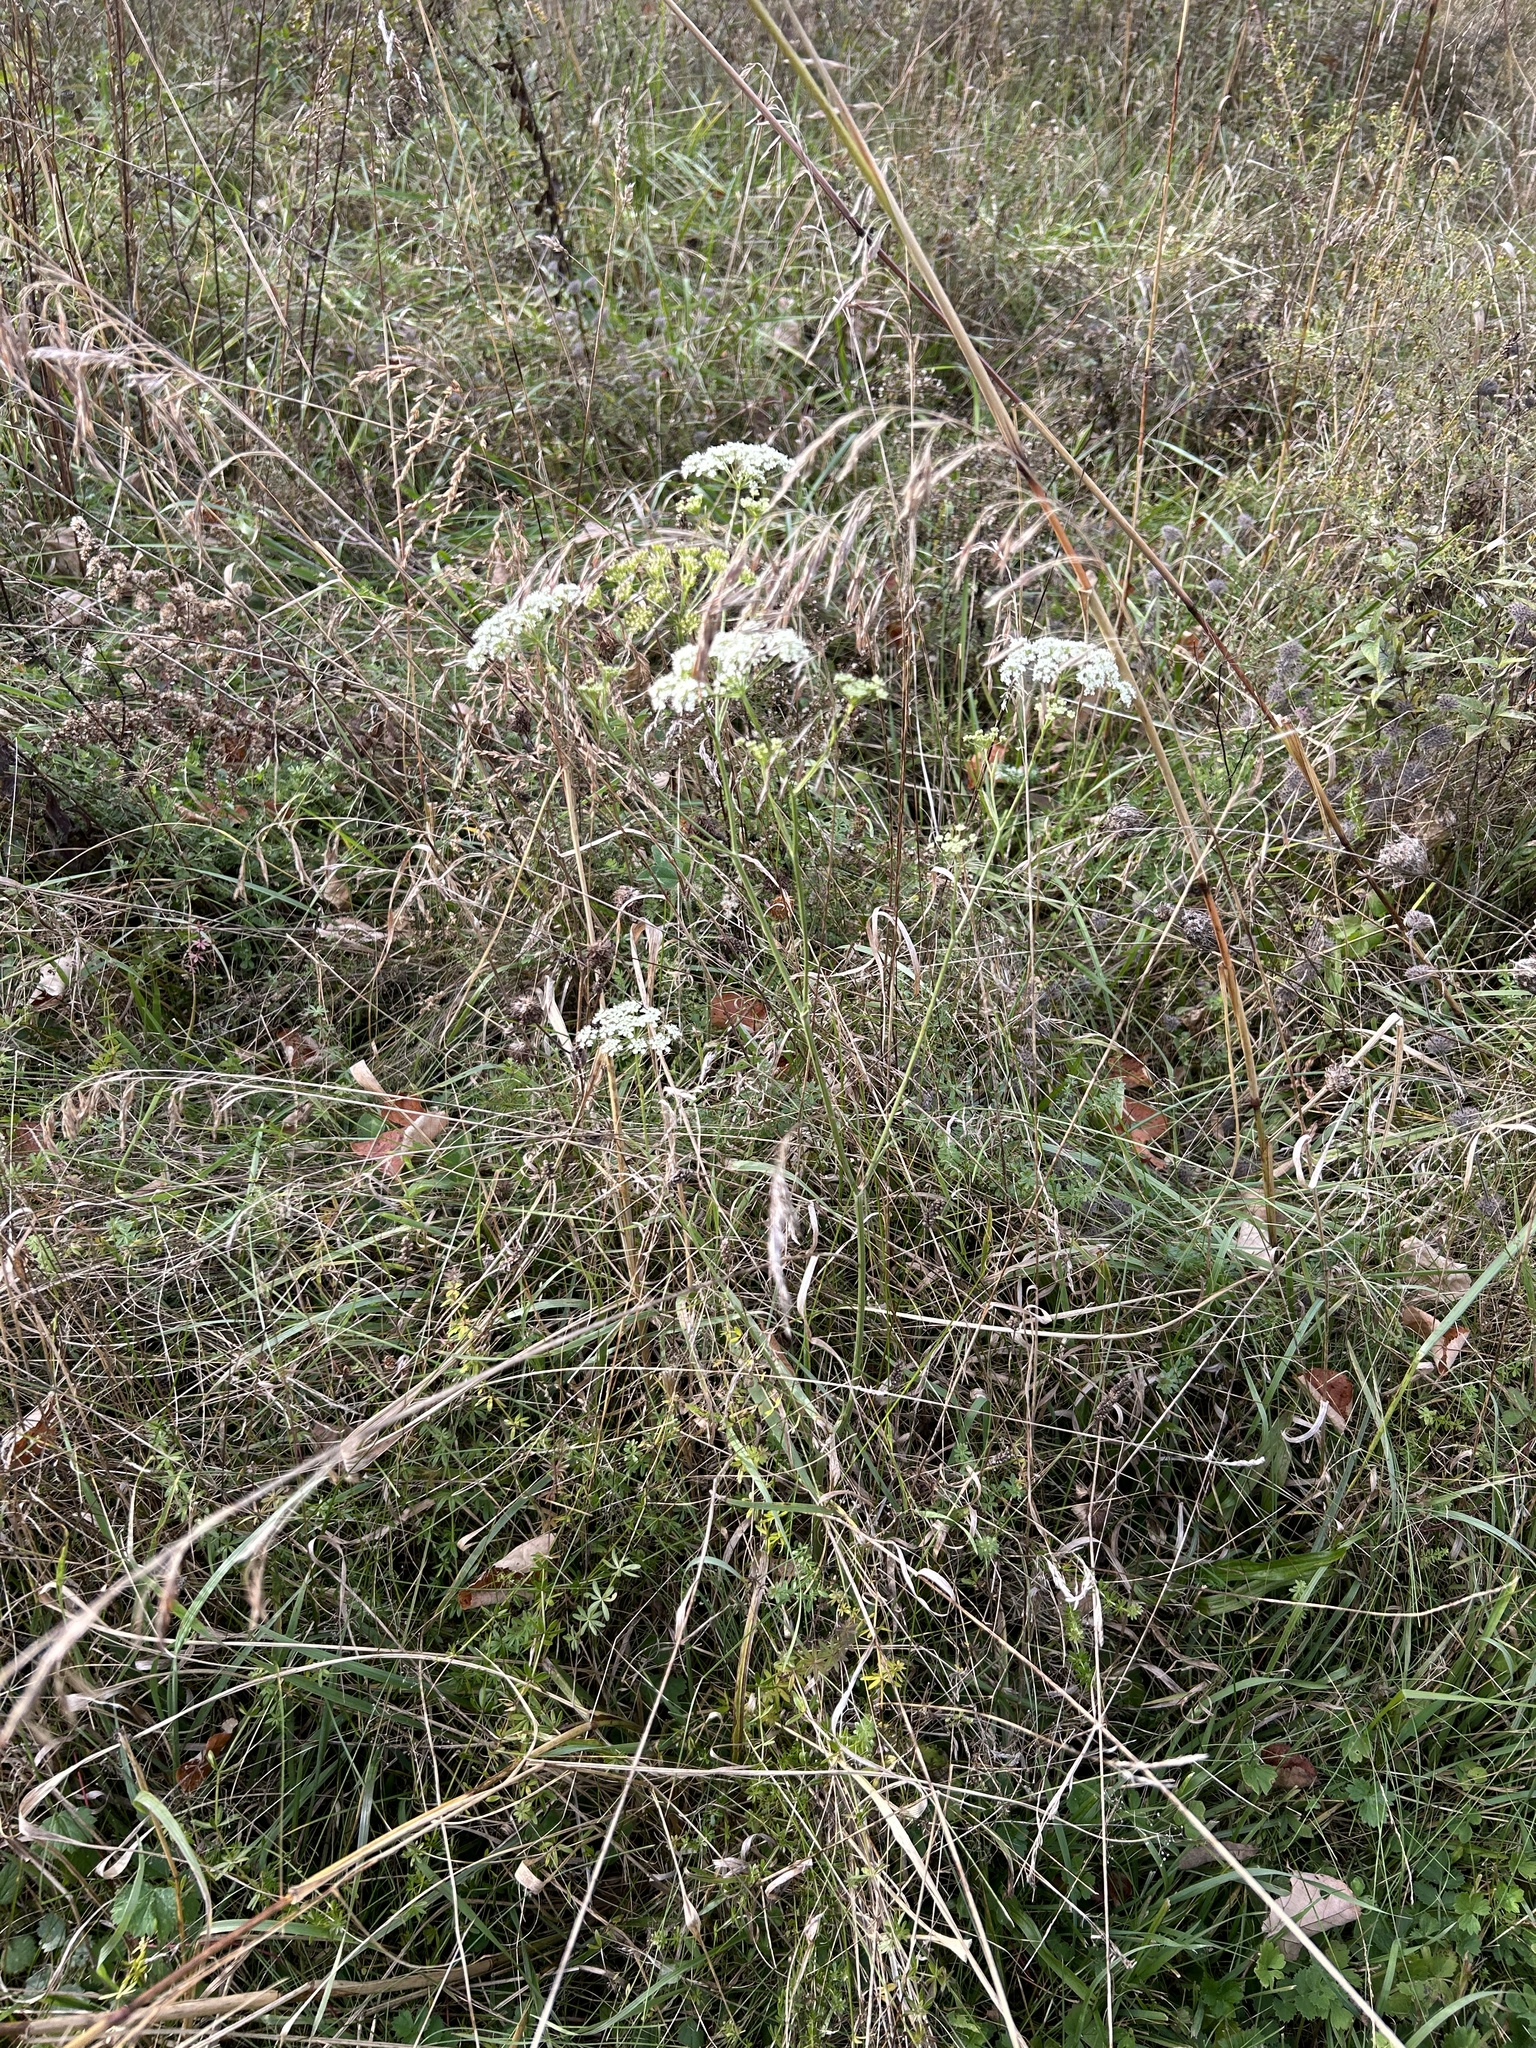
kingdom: Plantae
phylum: Tracheophyta
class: Magnoliopsida
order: Apiales
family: Apiaceae
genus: Pimpinella
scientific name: Pimpinella saxifraga
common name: Burnet-saxifrage
